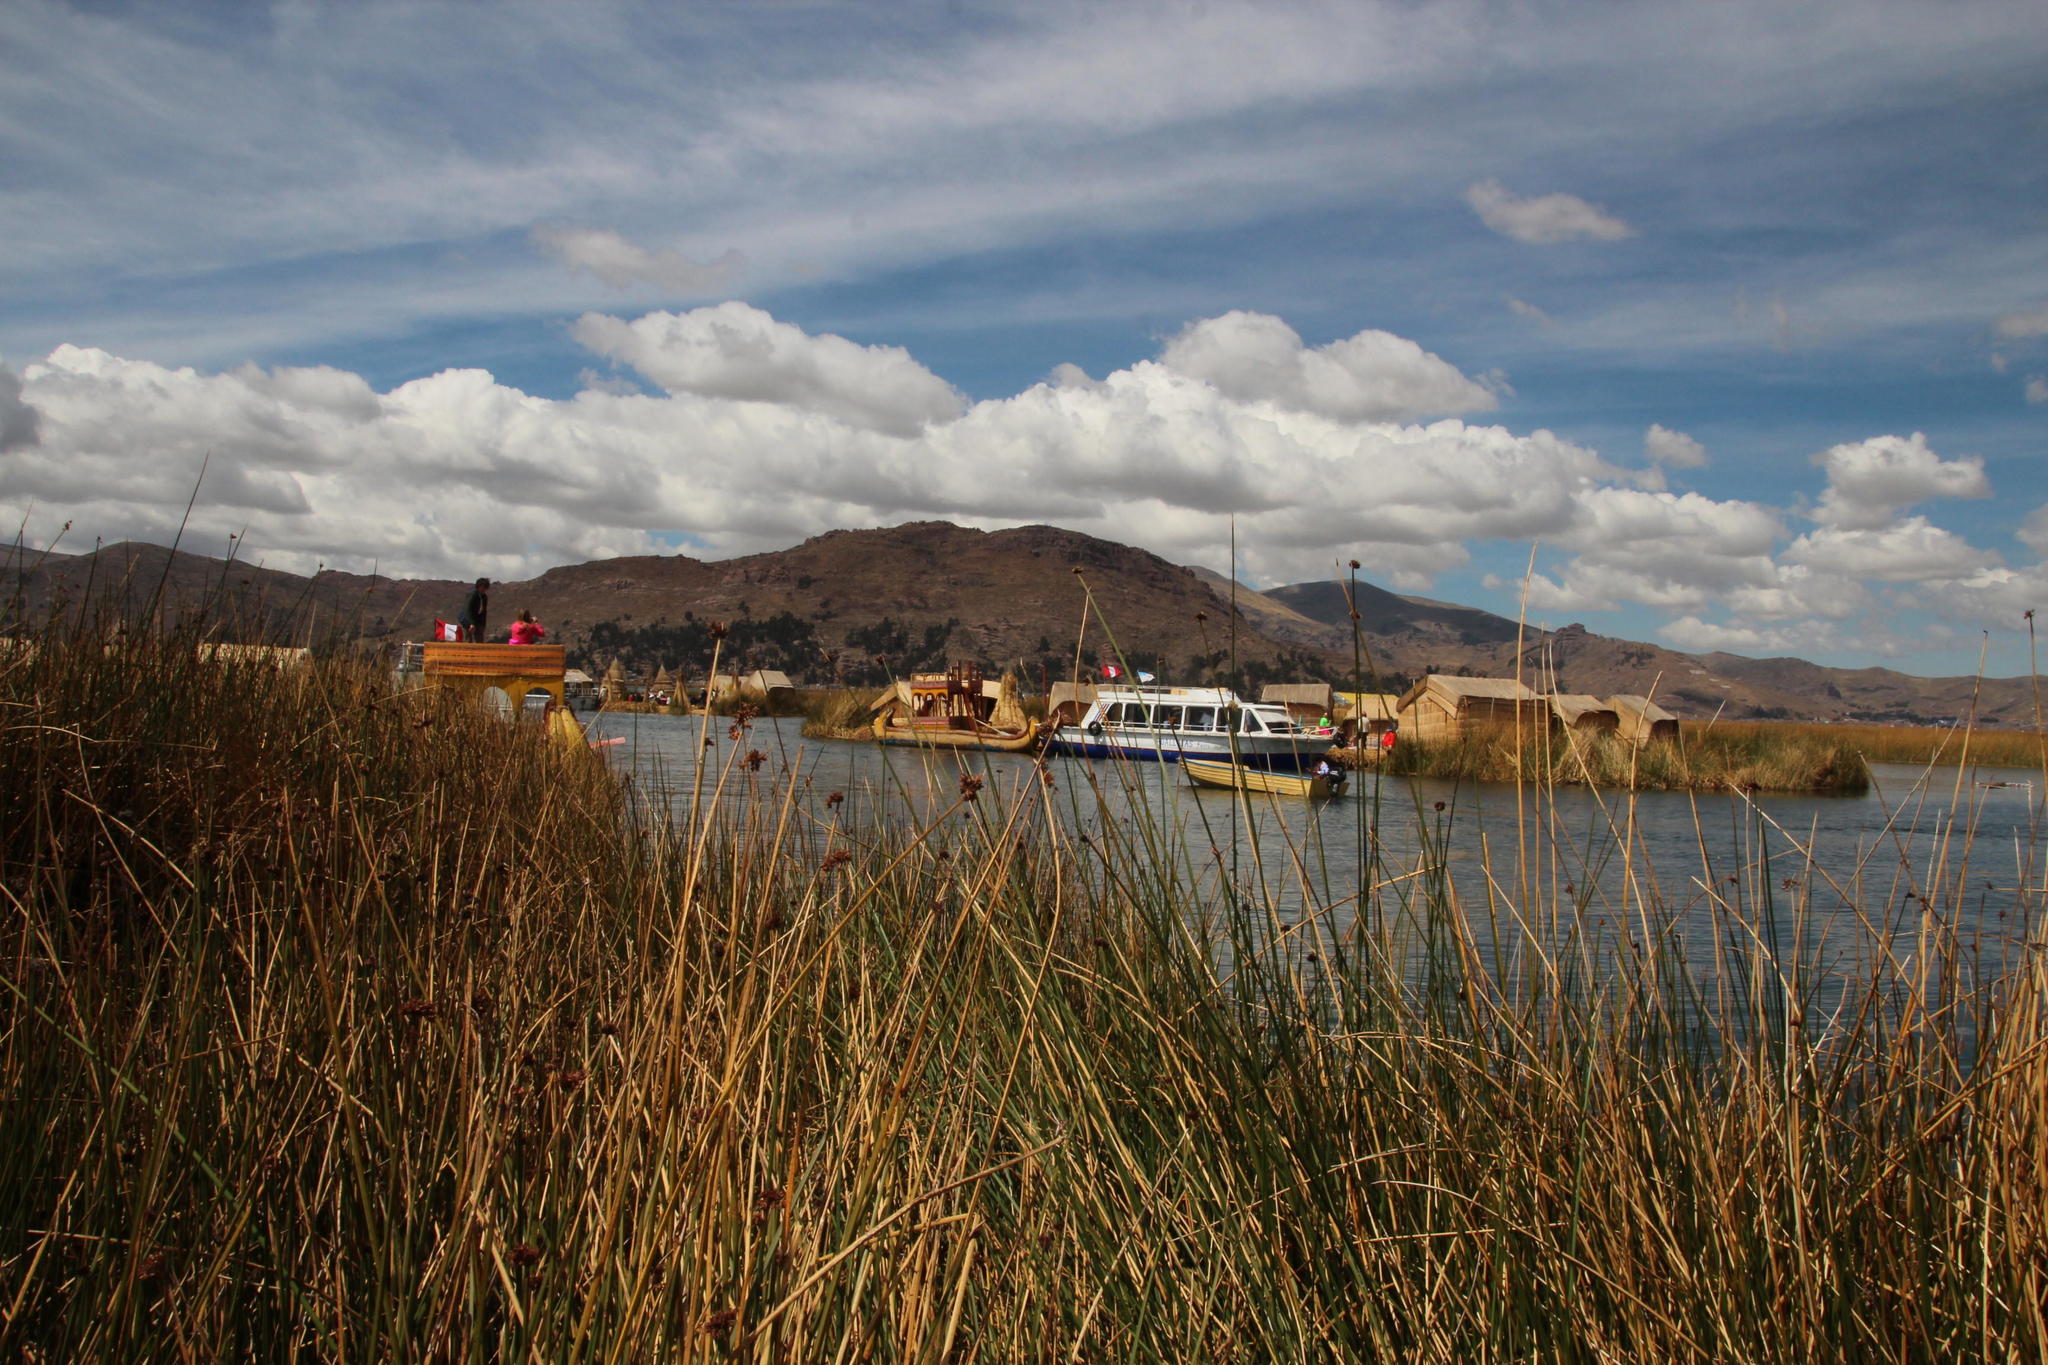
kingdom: Plantae
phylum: Tracheophyta
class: Liliopsida
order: Poales
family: Cyperaceae
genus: Schoenoplectus
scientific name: Schoenoplectus californicus
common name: California bulrush
